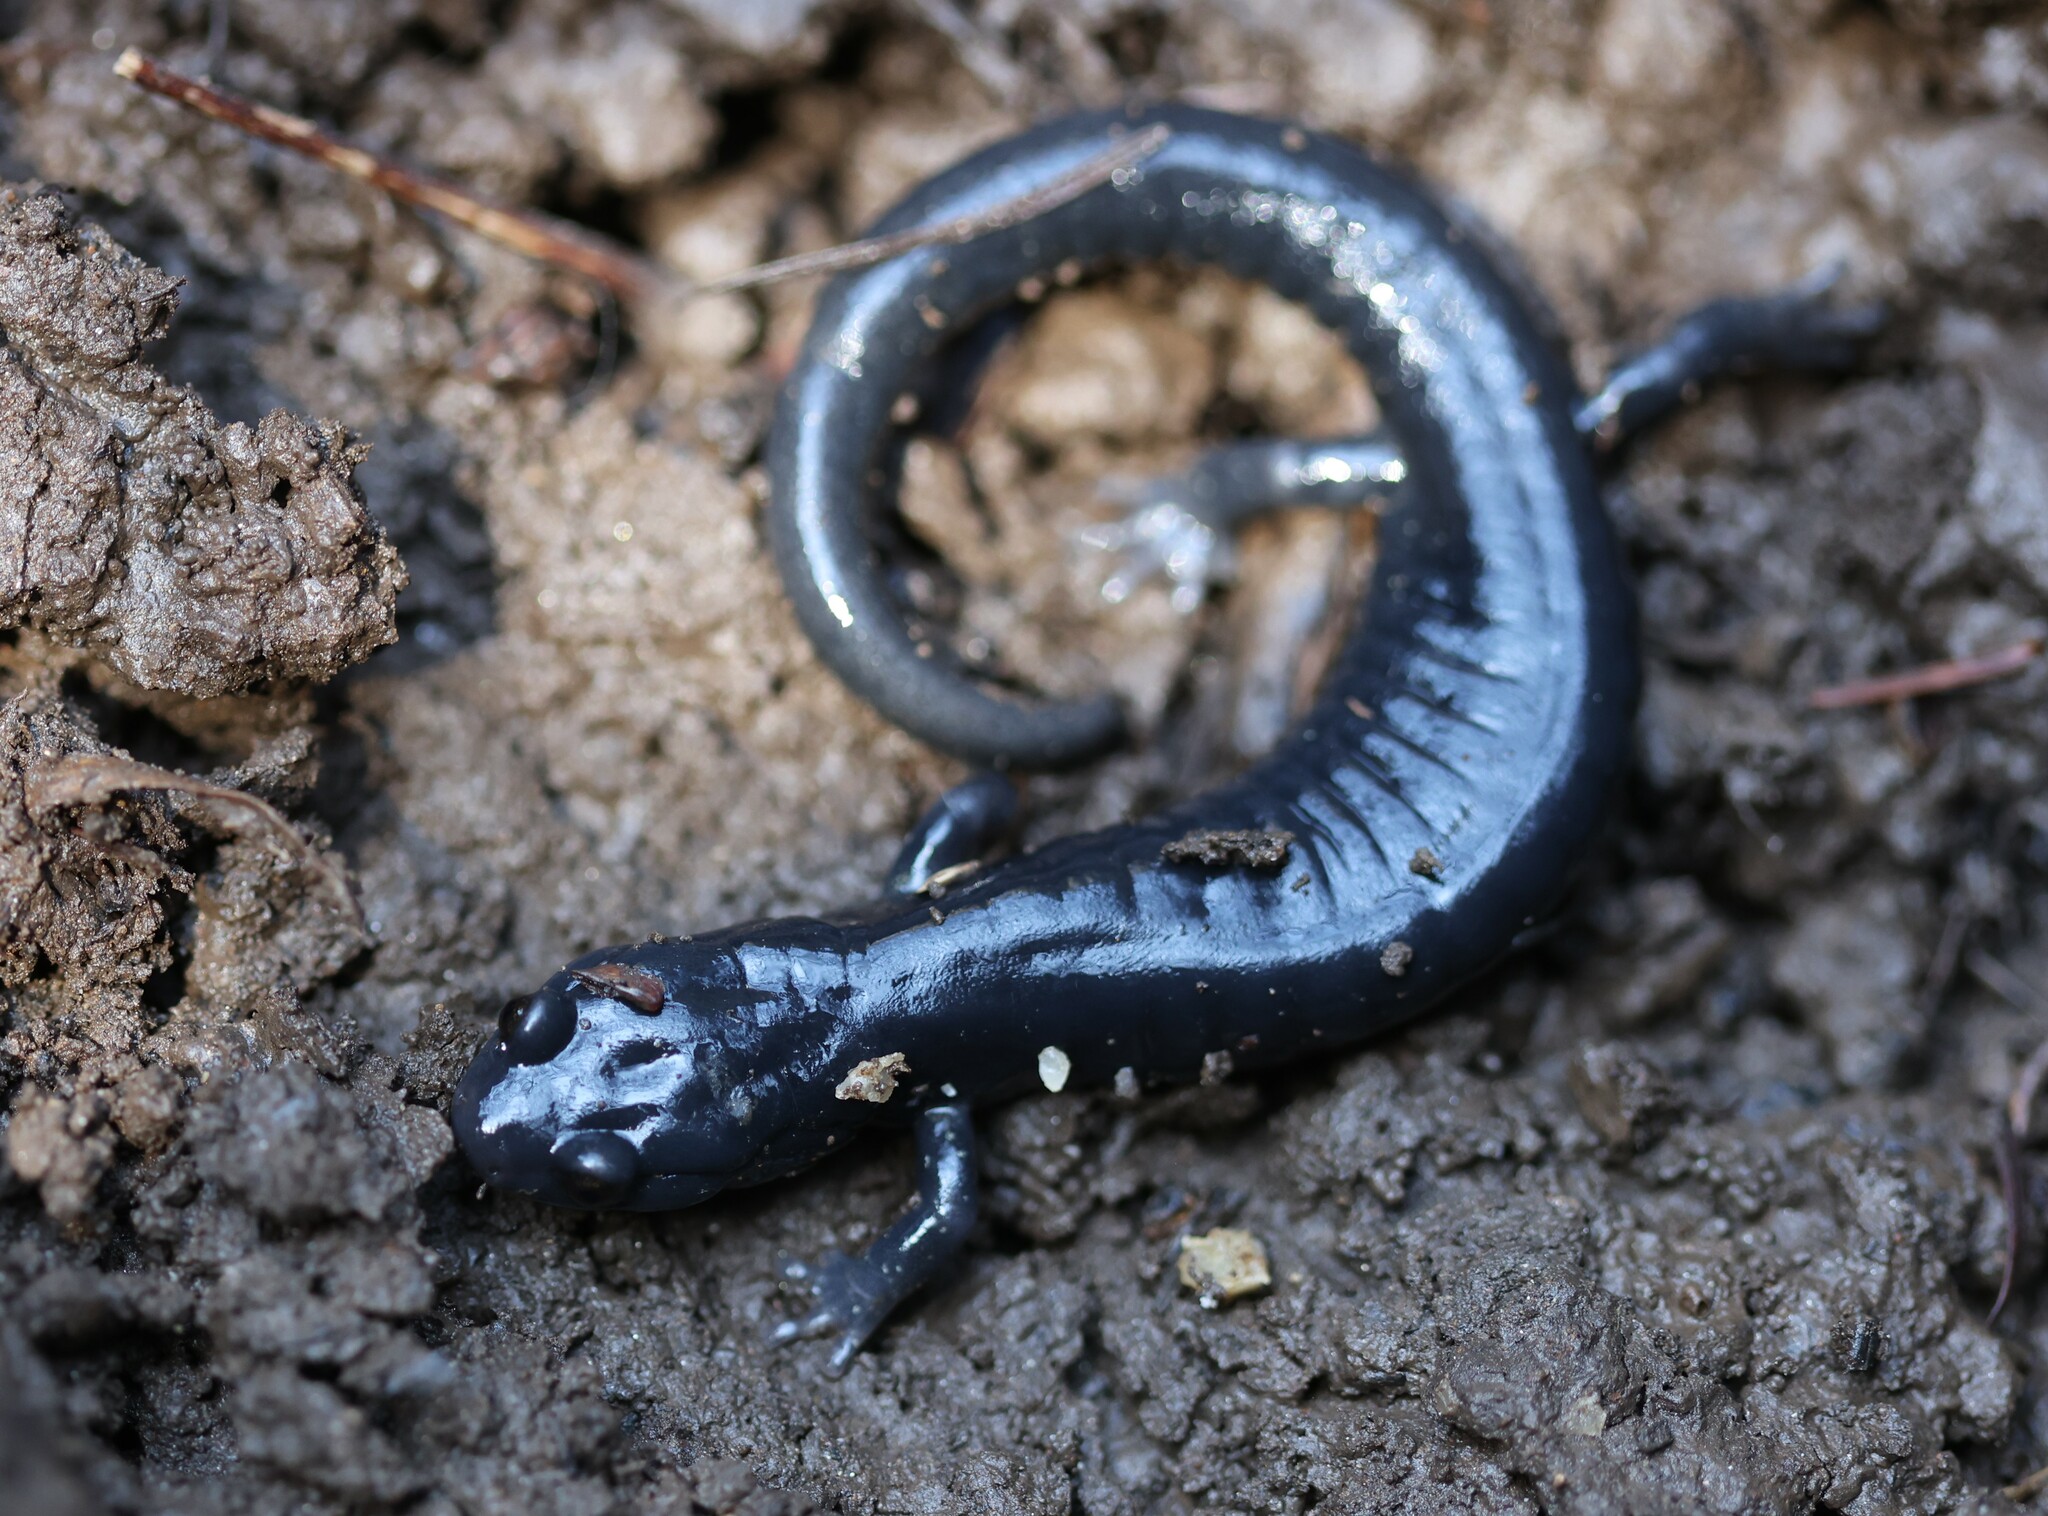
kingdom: Animalia
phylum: Chordata
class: Amphibia
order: Caudata
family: Plethodontidae
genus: Aneides
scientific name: Aneides niger
